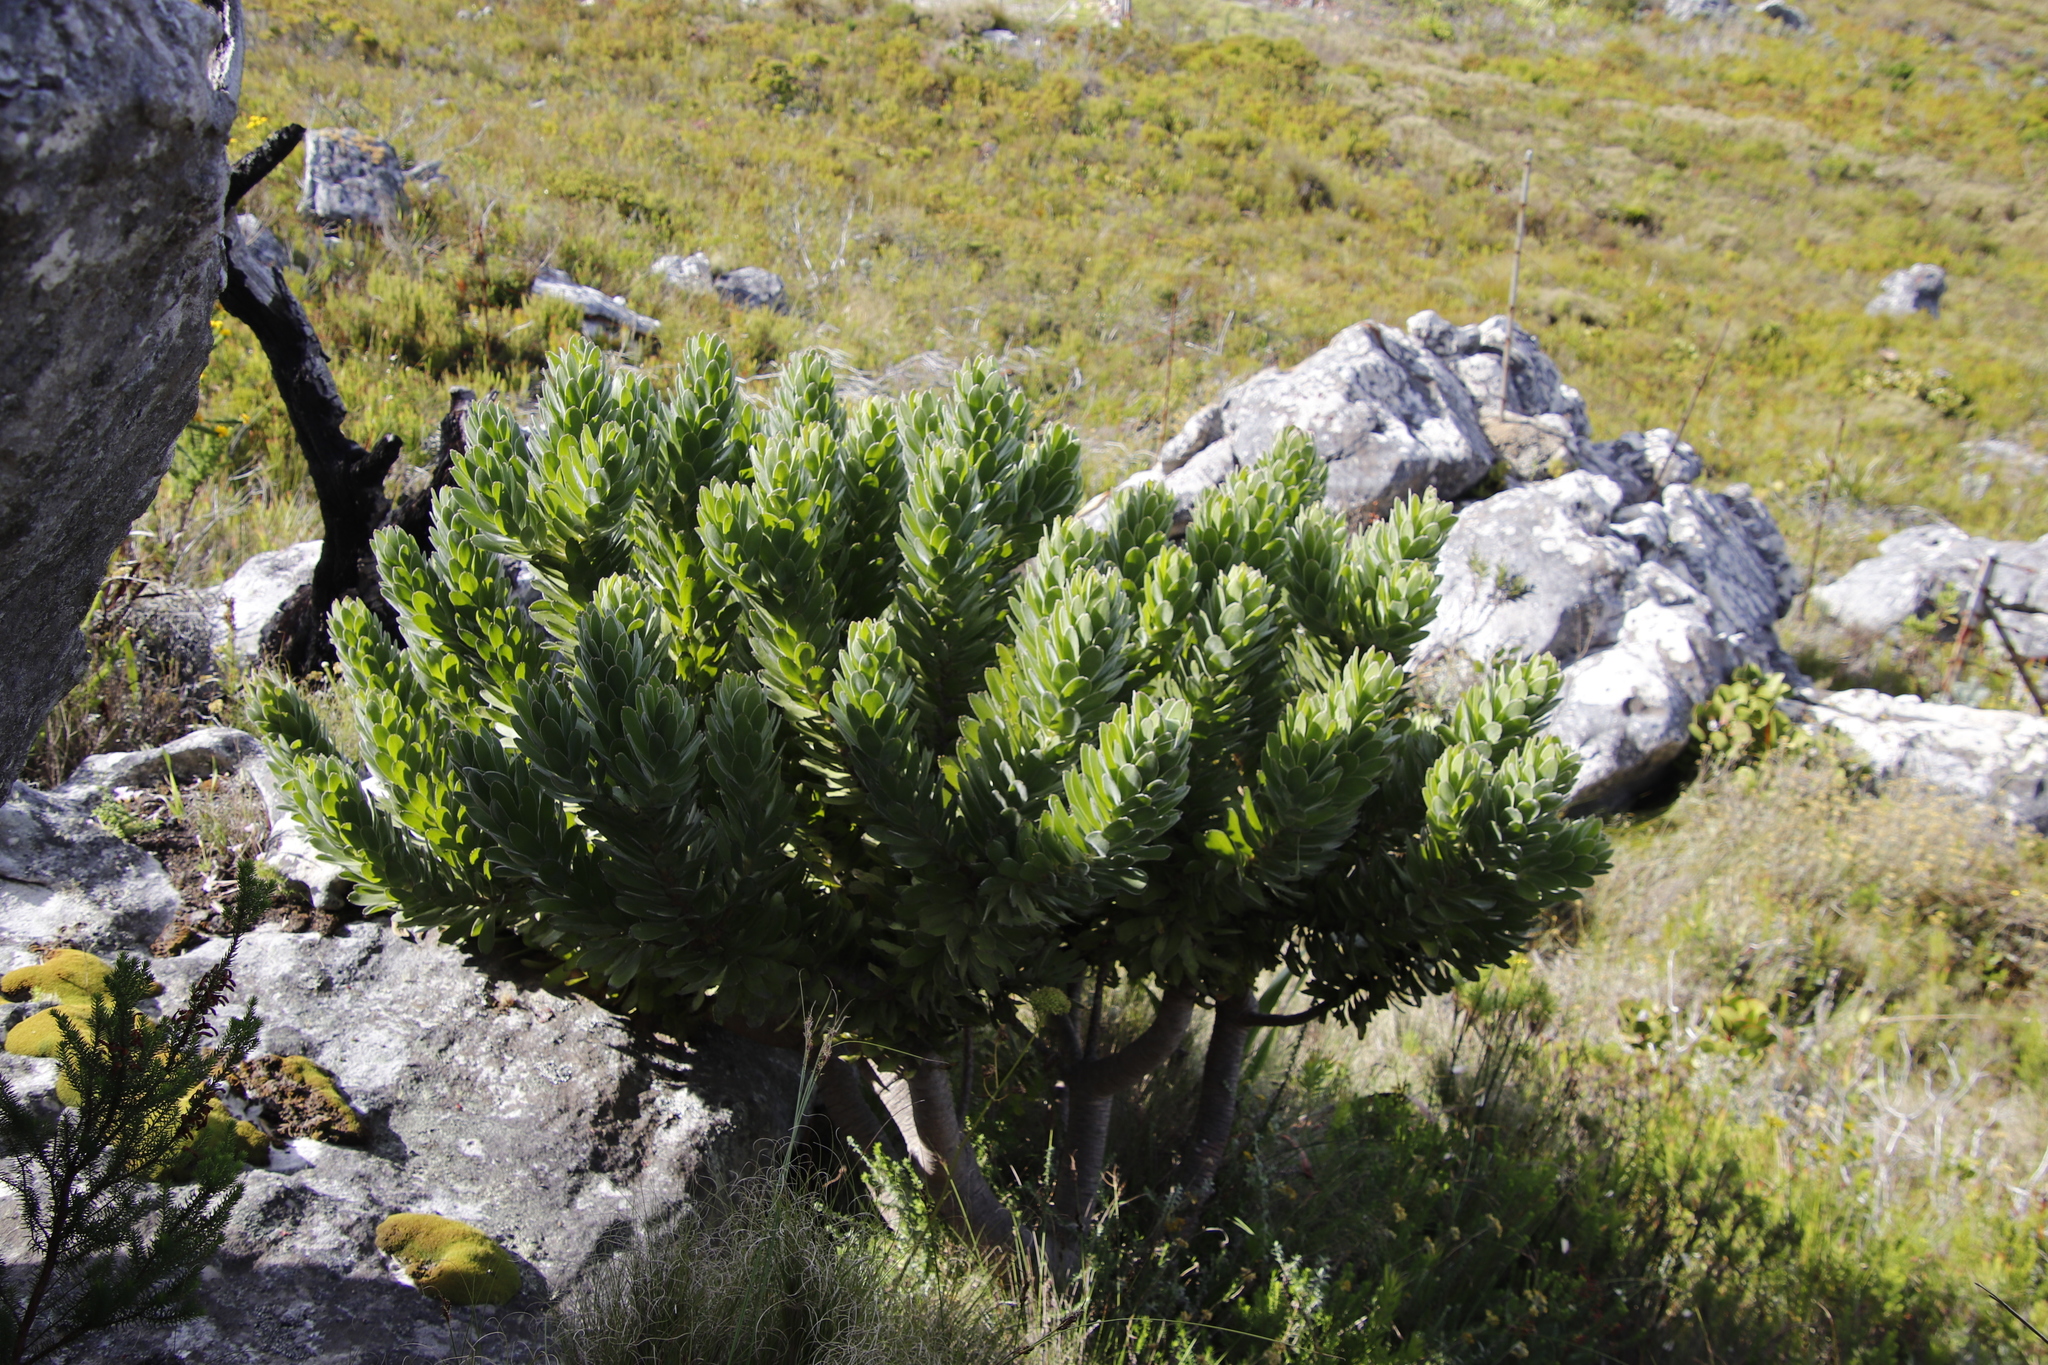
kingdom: Plantae
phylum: Tracheophyta
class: Magnoliopsida
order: Proteales
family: Proteaceae
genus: Leucospermum
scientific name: Leucospermum conocarpodendron
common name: Tree pincushion
